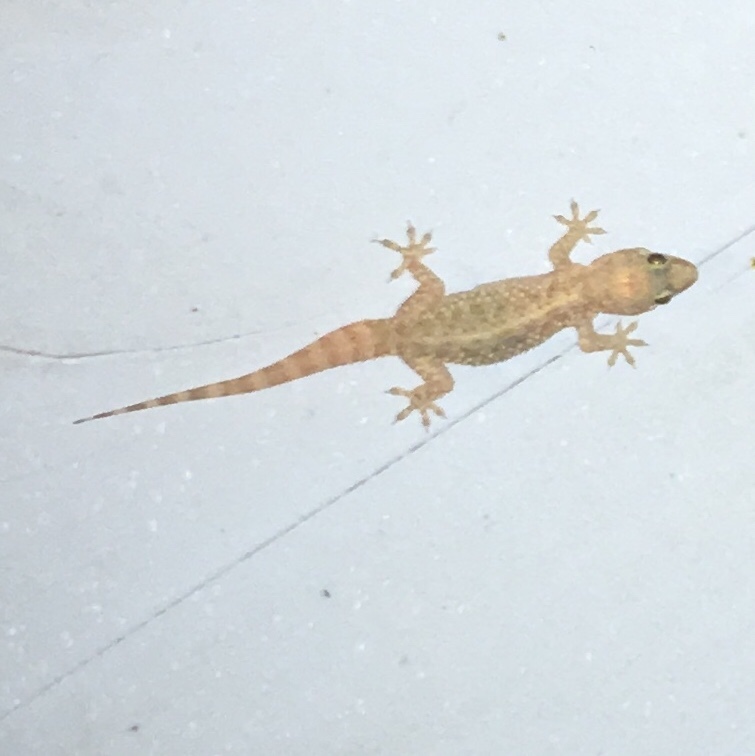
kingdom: Animalia
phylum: Chordata
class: Squamata
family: Gekkonidae
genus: Hemidactylus
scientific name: Hemidactylus turcicus
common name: Turkish gecko
